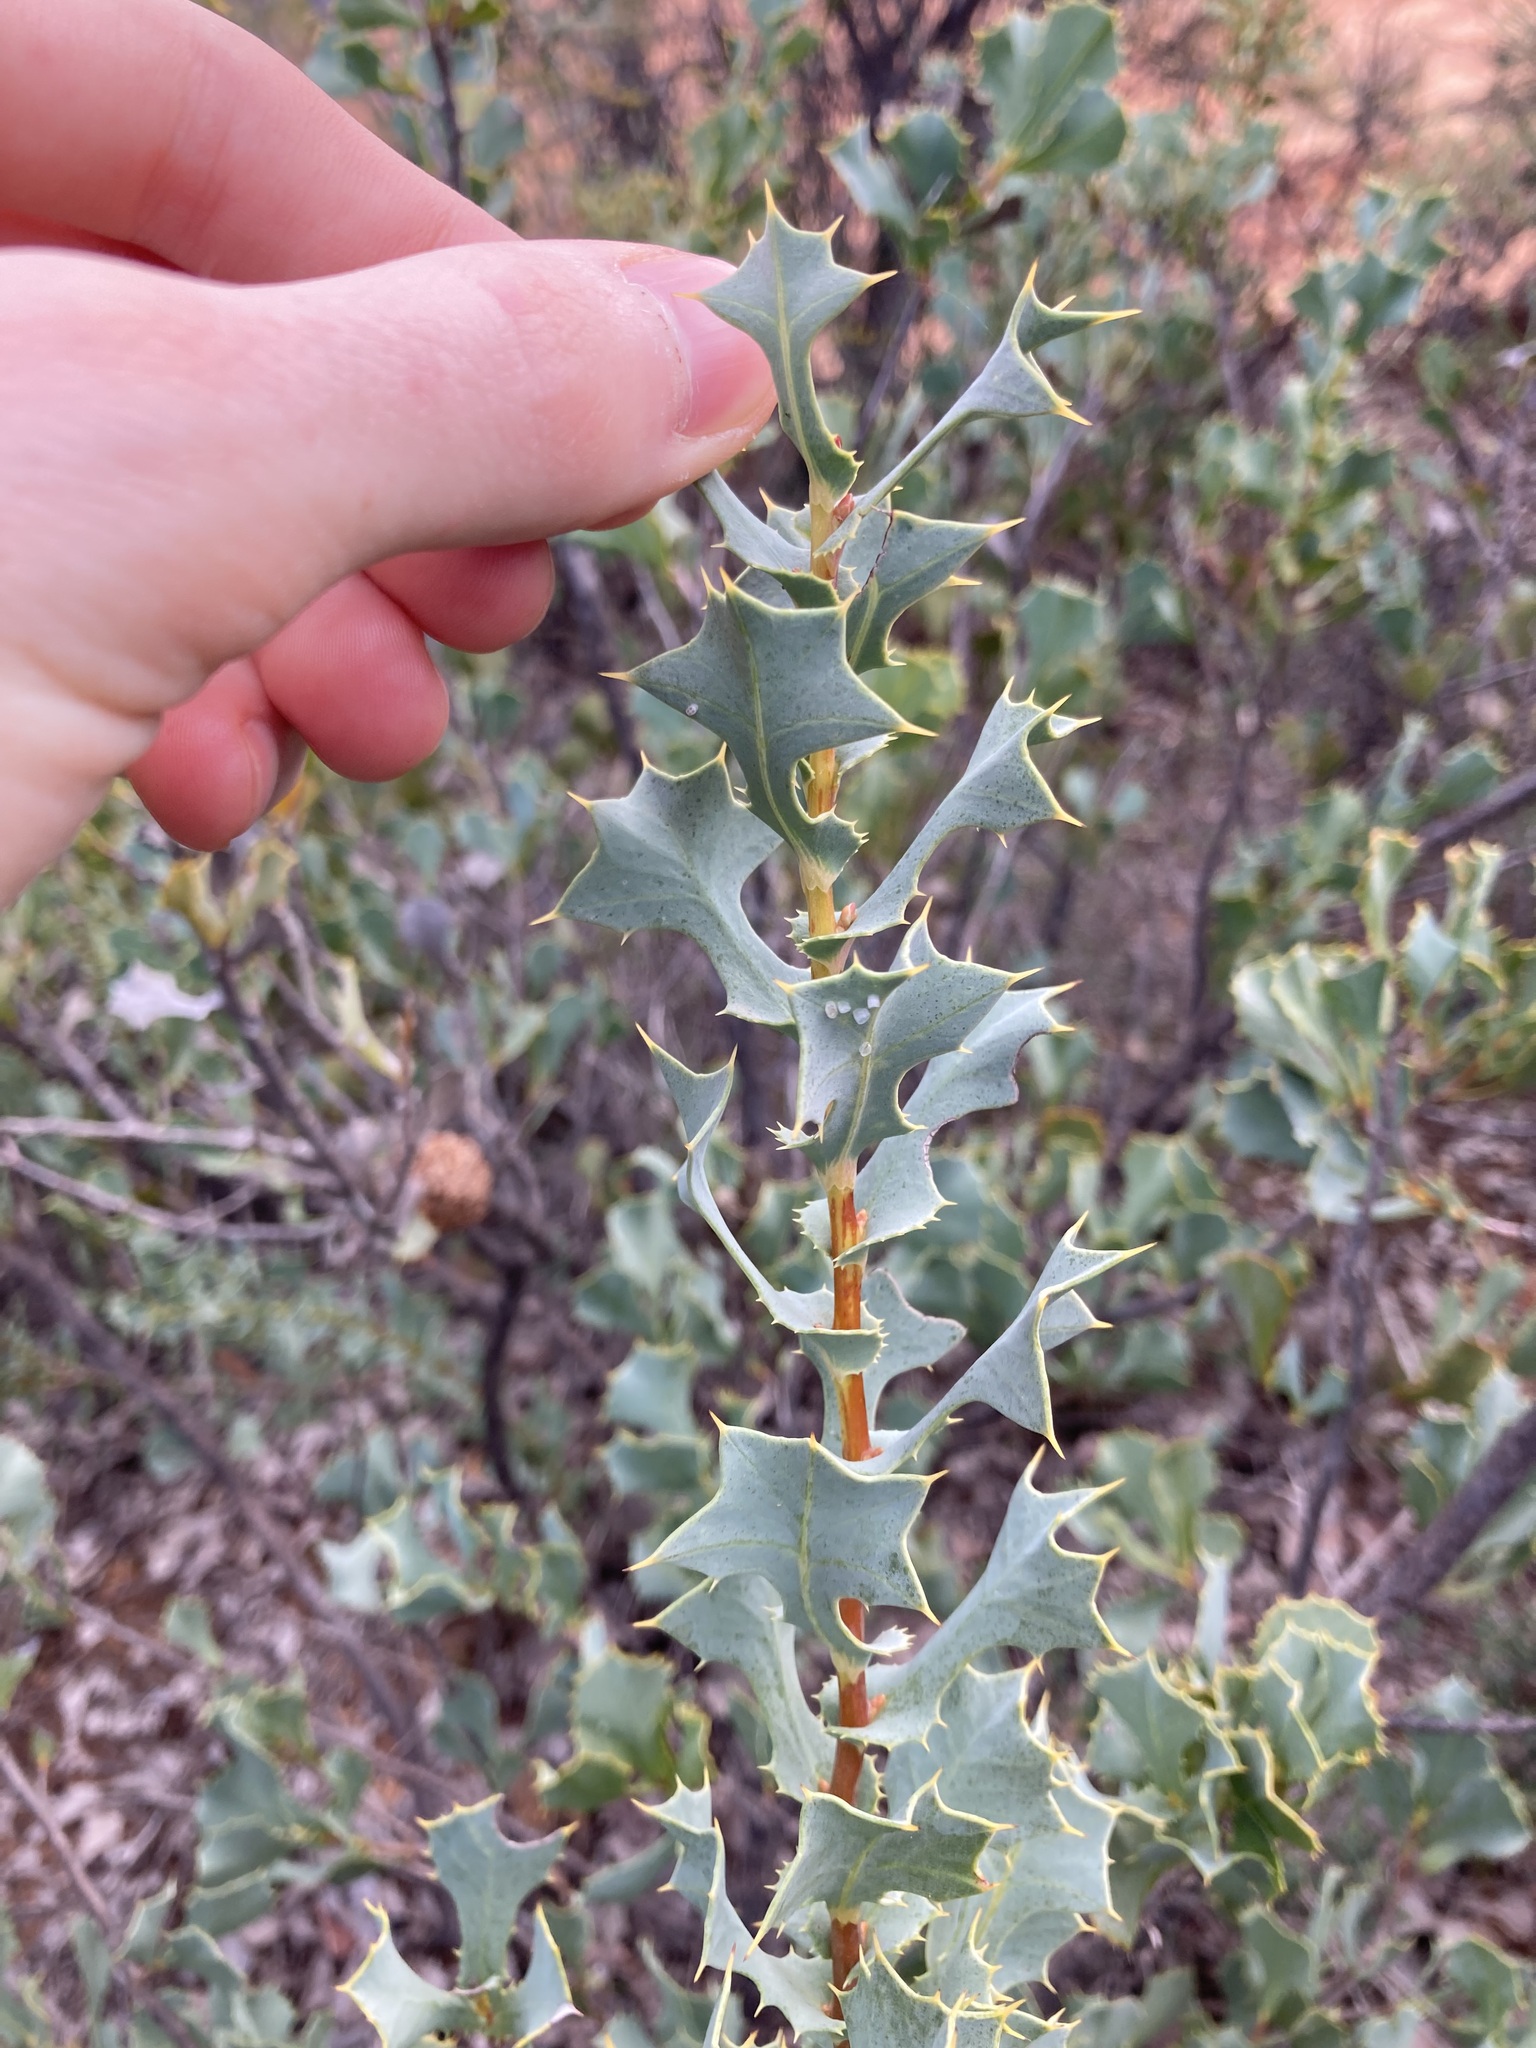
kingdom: Plantae
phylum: Tracheophyta
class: Magnoliopsida
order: Proteales
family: Proteaceae
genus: Hakea
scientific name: Hakea auriculata
